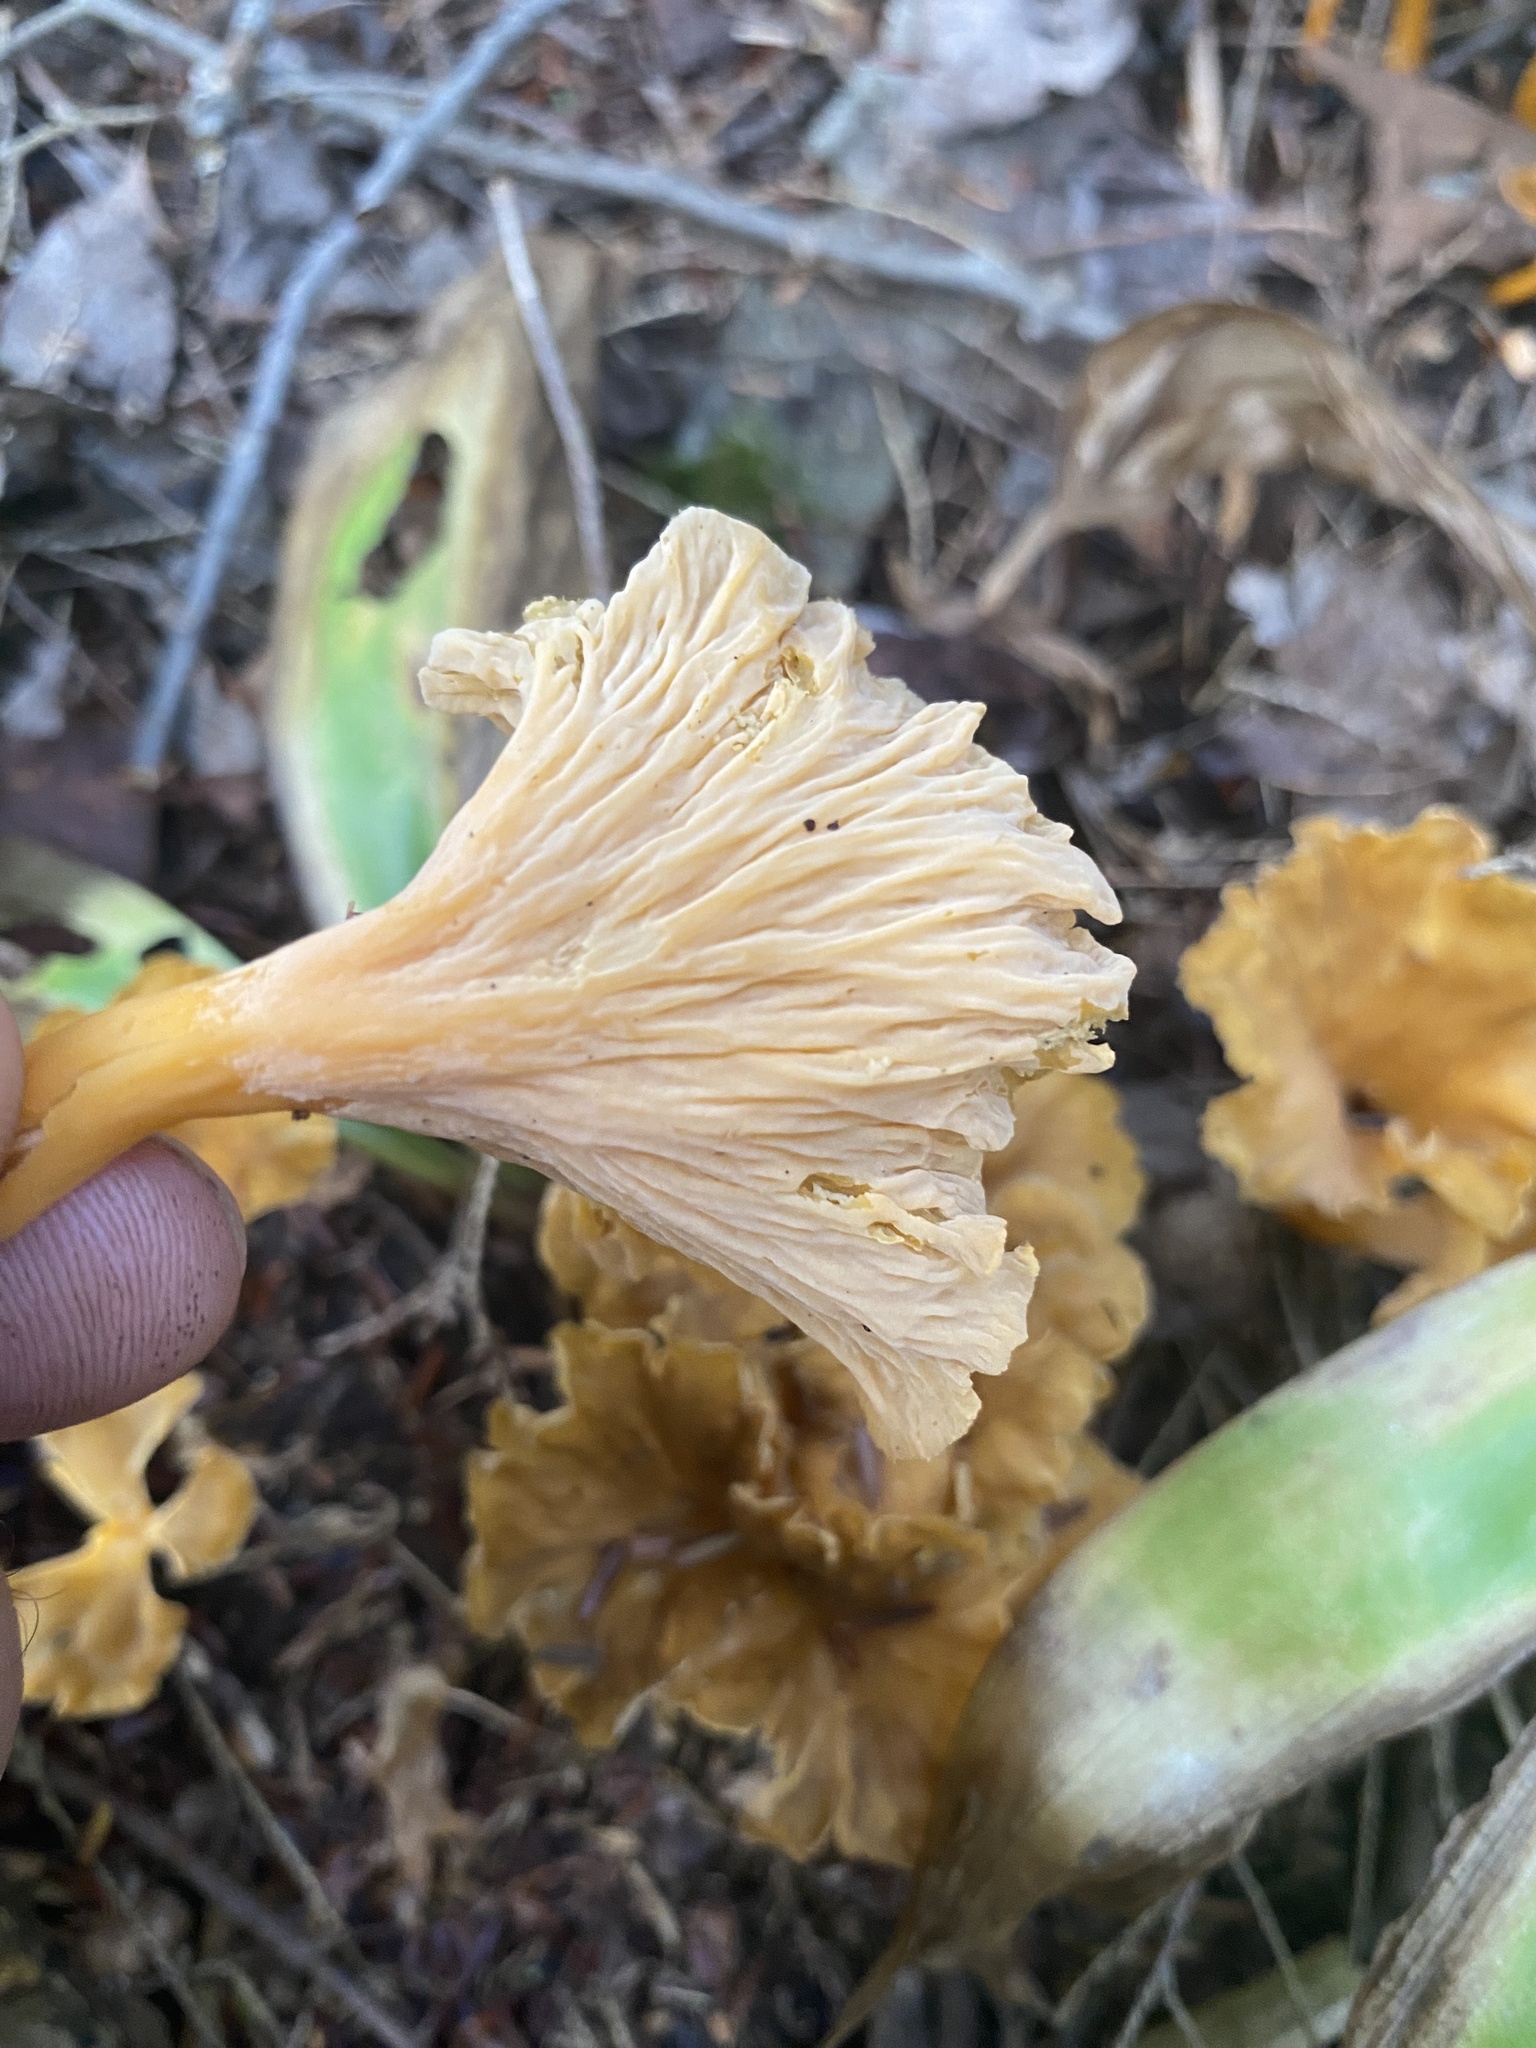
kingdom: Fungi
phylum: Basidiomycota
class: Agaricomycetes
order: Cantharellales
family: Hydnaceae
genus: Craterellus
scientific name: Craterellus lutescens
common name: Golden chanterelle
